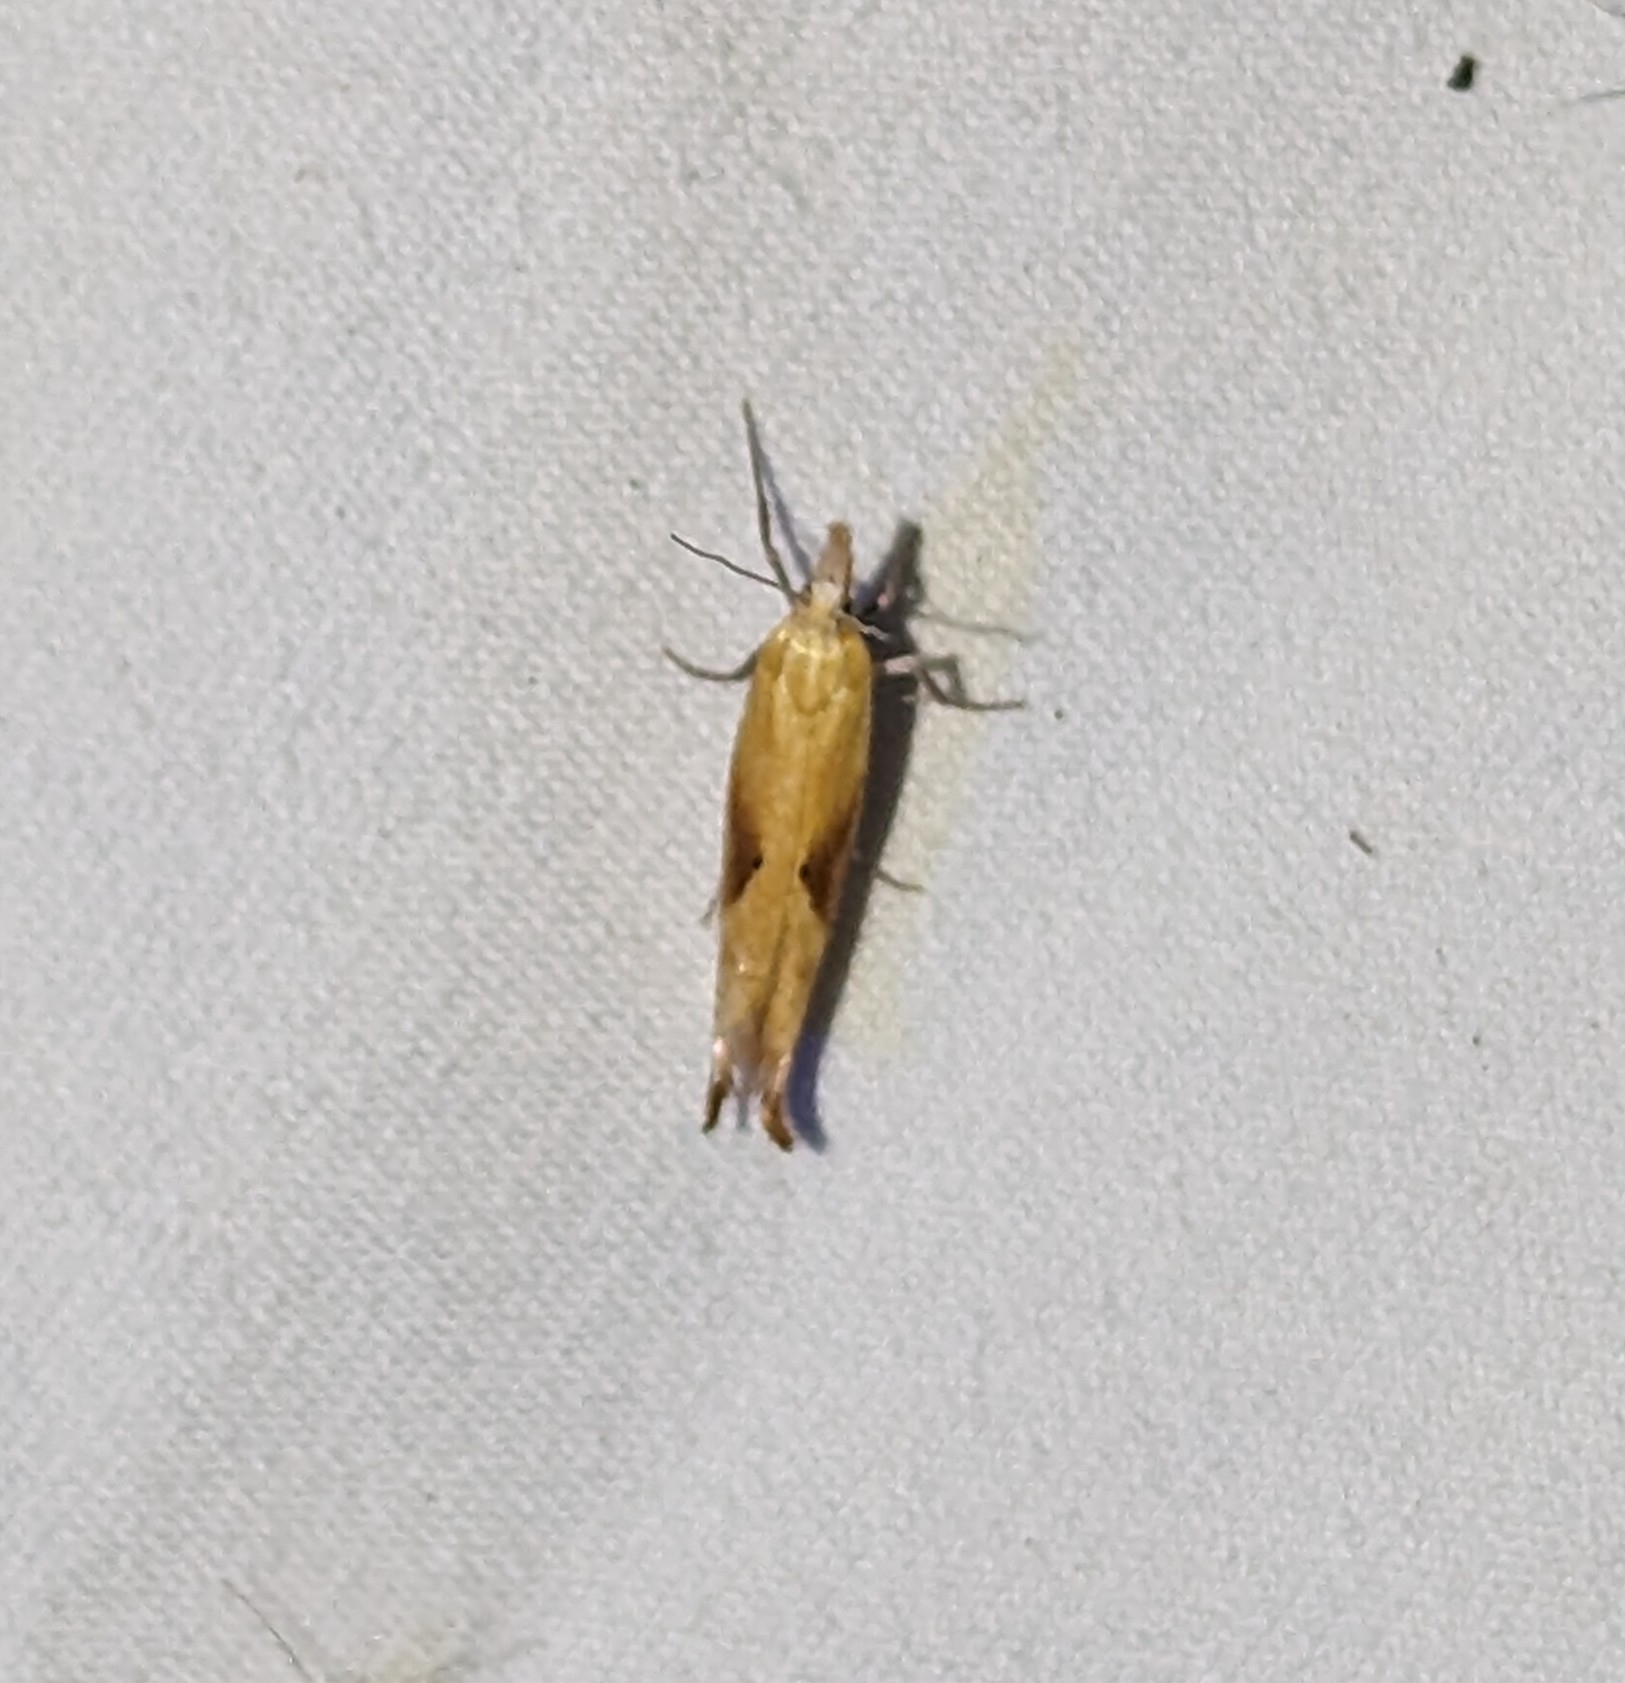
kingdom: Animalia
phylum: Arthropoda
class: Insecta
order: Lepidoptera
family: Ypsolophidae
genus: Ypsolopha
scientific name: Ypsolopha canariella
